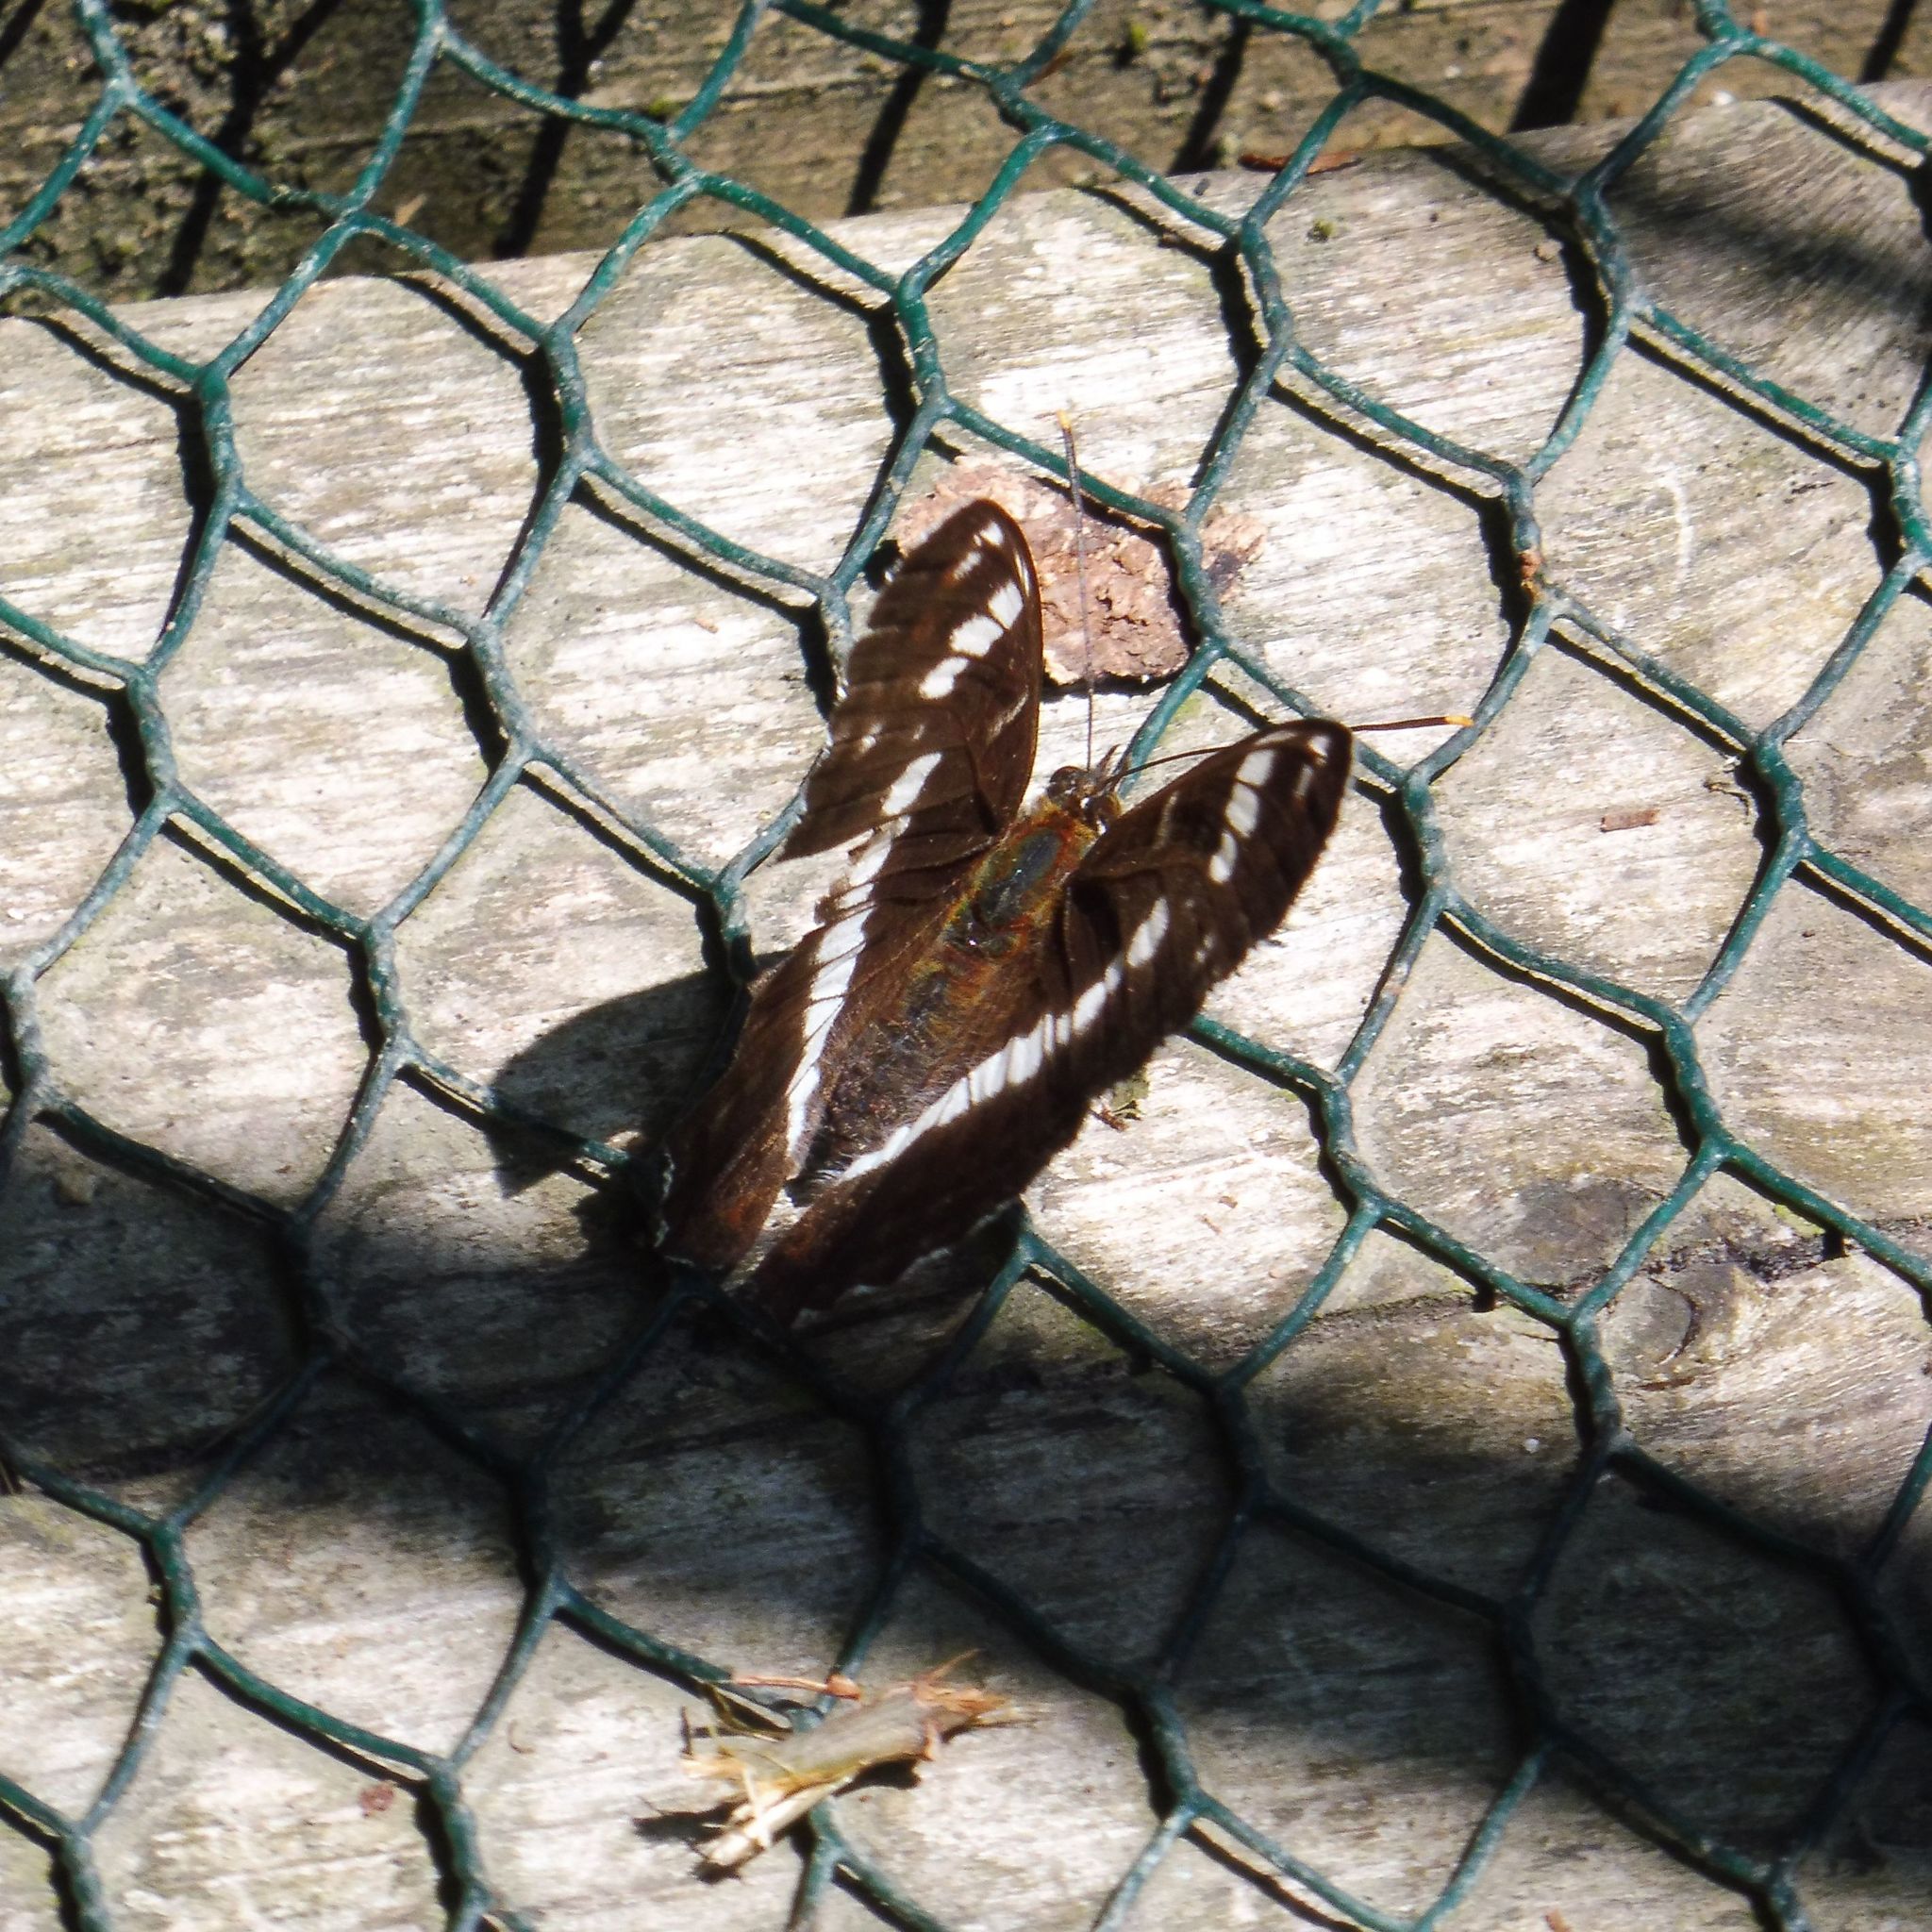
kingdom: Animalia
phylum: Arthropoda
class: Insecta
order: Lepidoptera
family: Nymphalidae
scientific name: Nymphalidae
